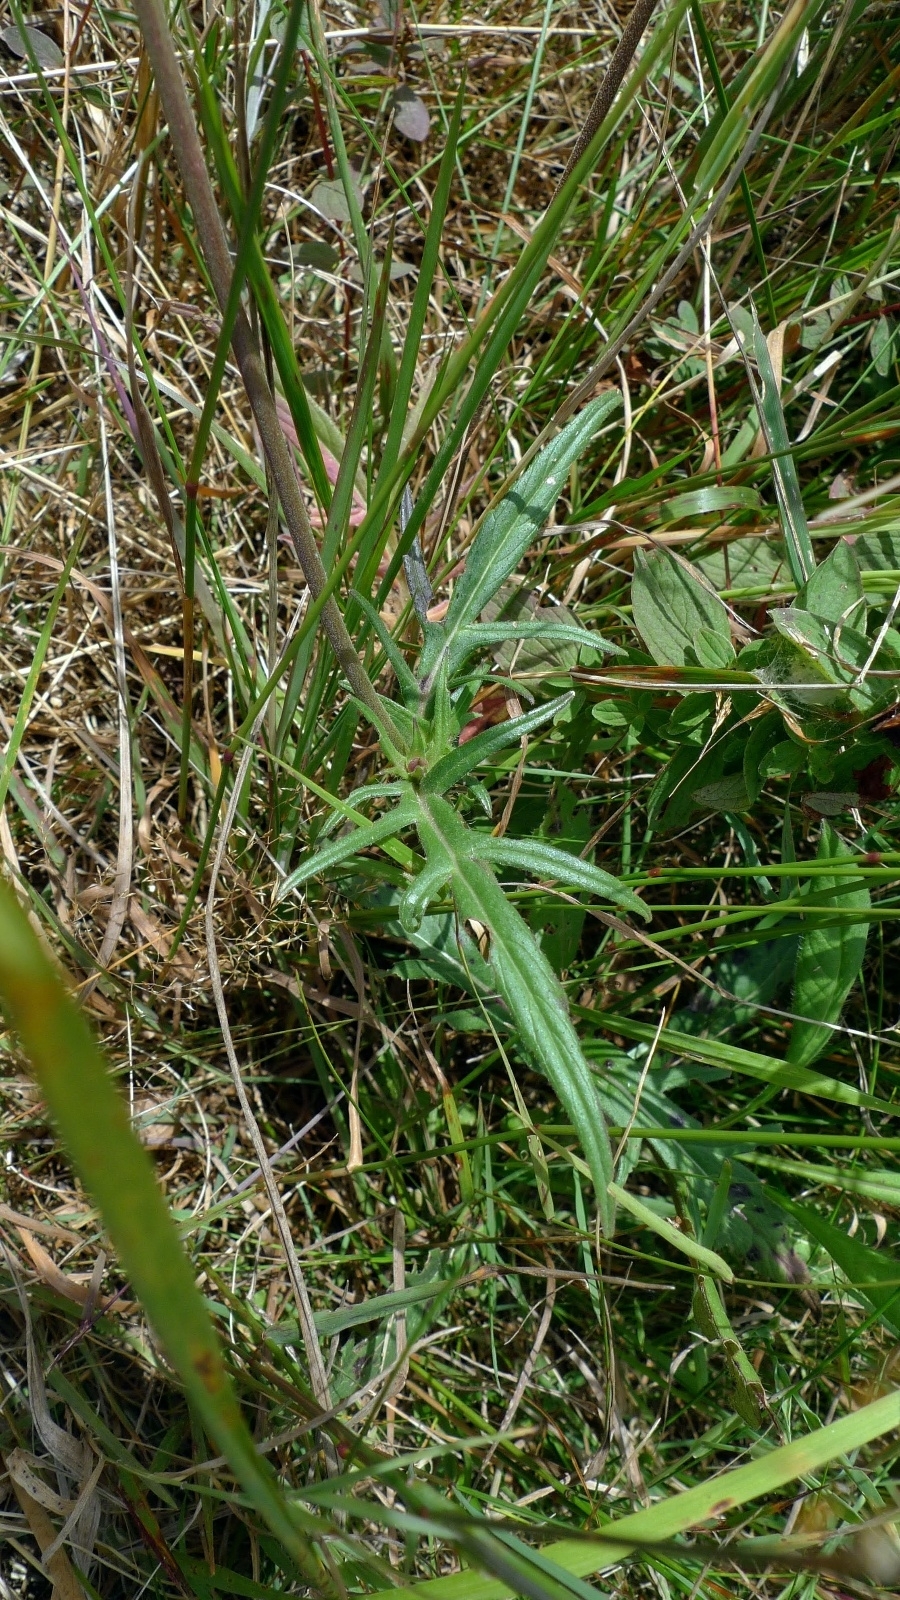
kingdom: Plantae
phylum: Tracheophyta
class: Magnoliopsida
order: Dipsacales
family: Caprifoliaceae
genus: Knautia
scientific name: Knautia arvensis
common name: Field scabiosa
